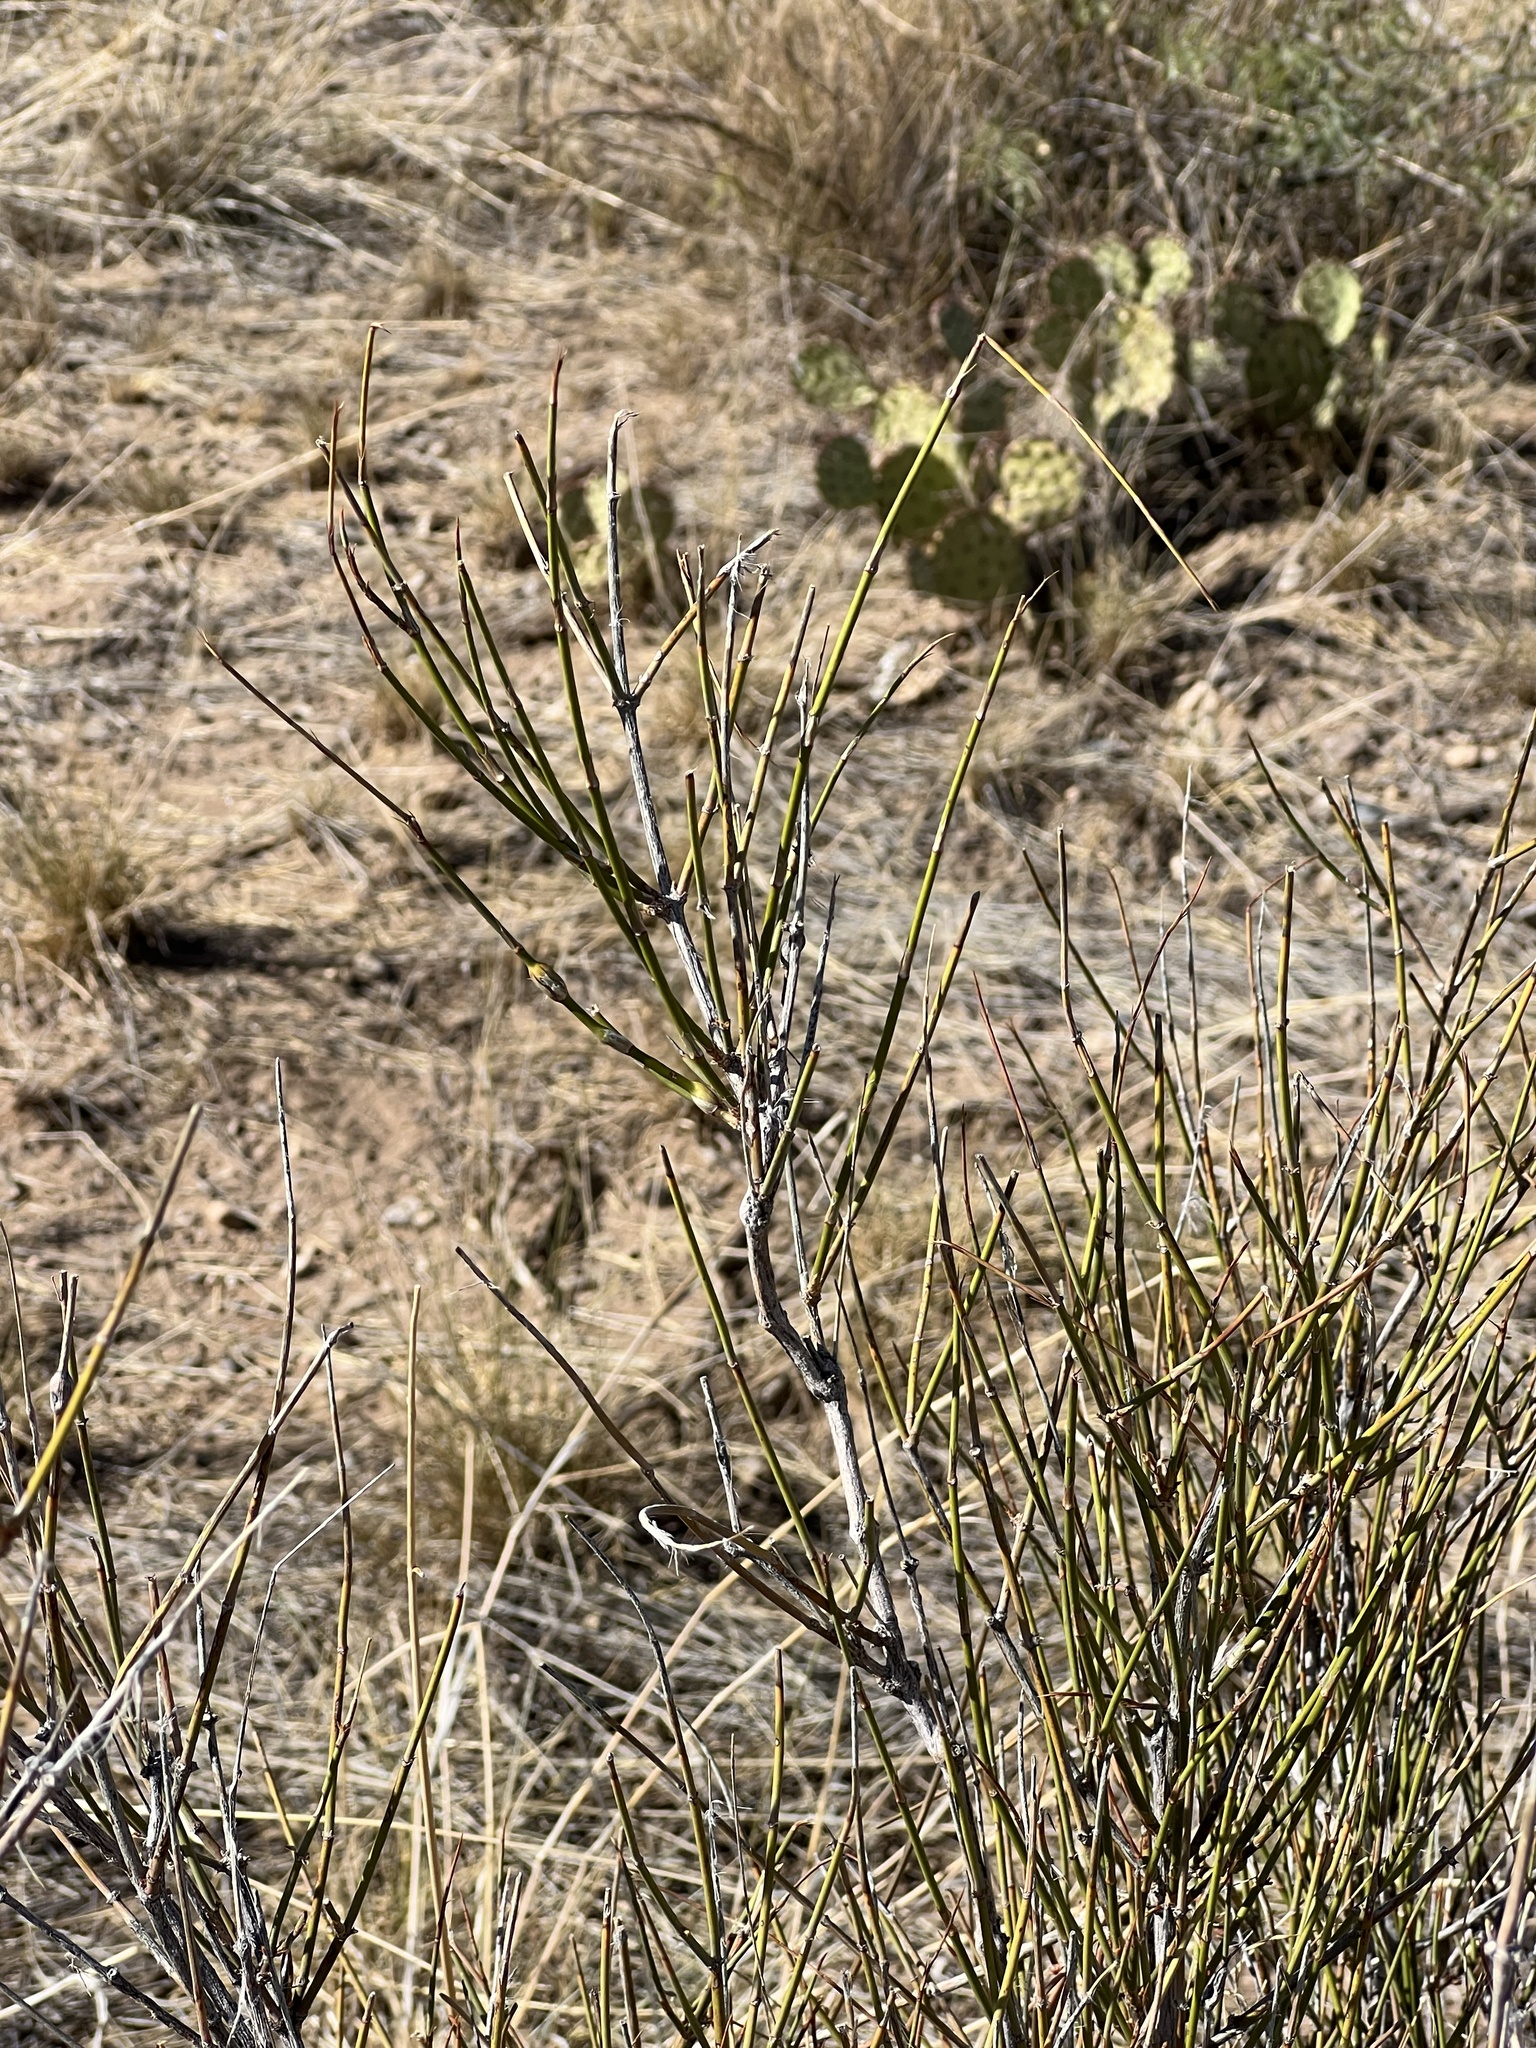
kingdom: Plantae
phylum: Tracheophyta
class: Gnetopsida
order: Ephedrales
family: Ephedraceae
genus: Ephedra
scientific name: Ephedra trifurca
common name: Mexican-tea
